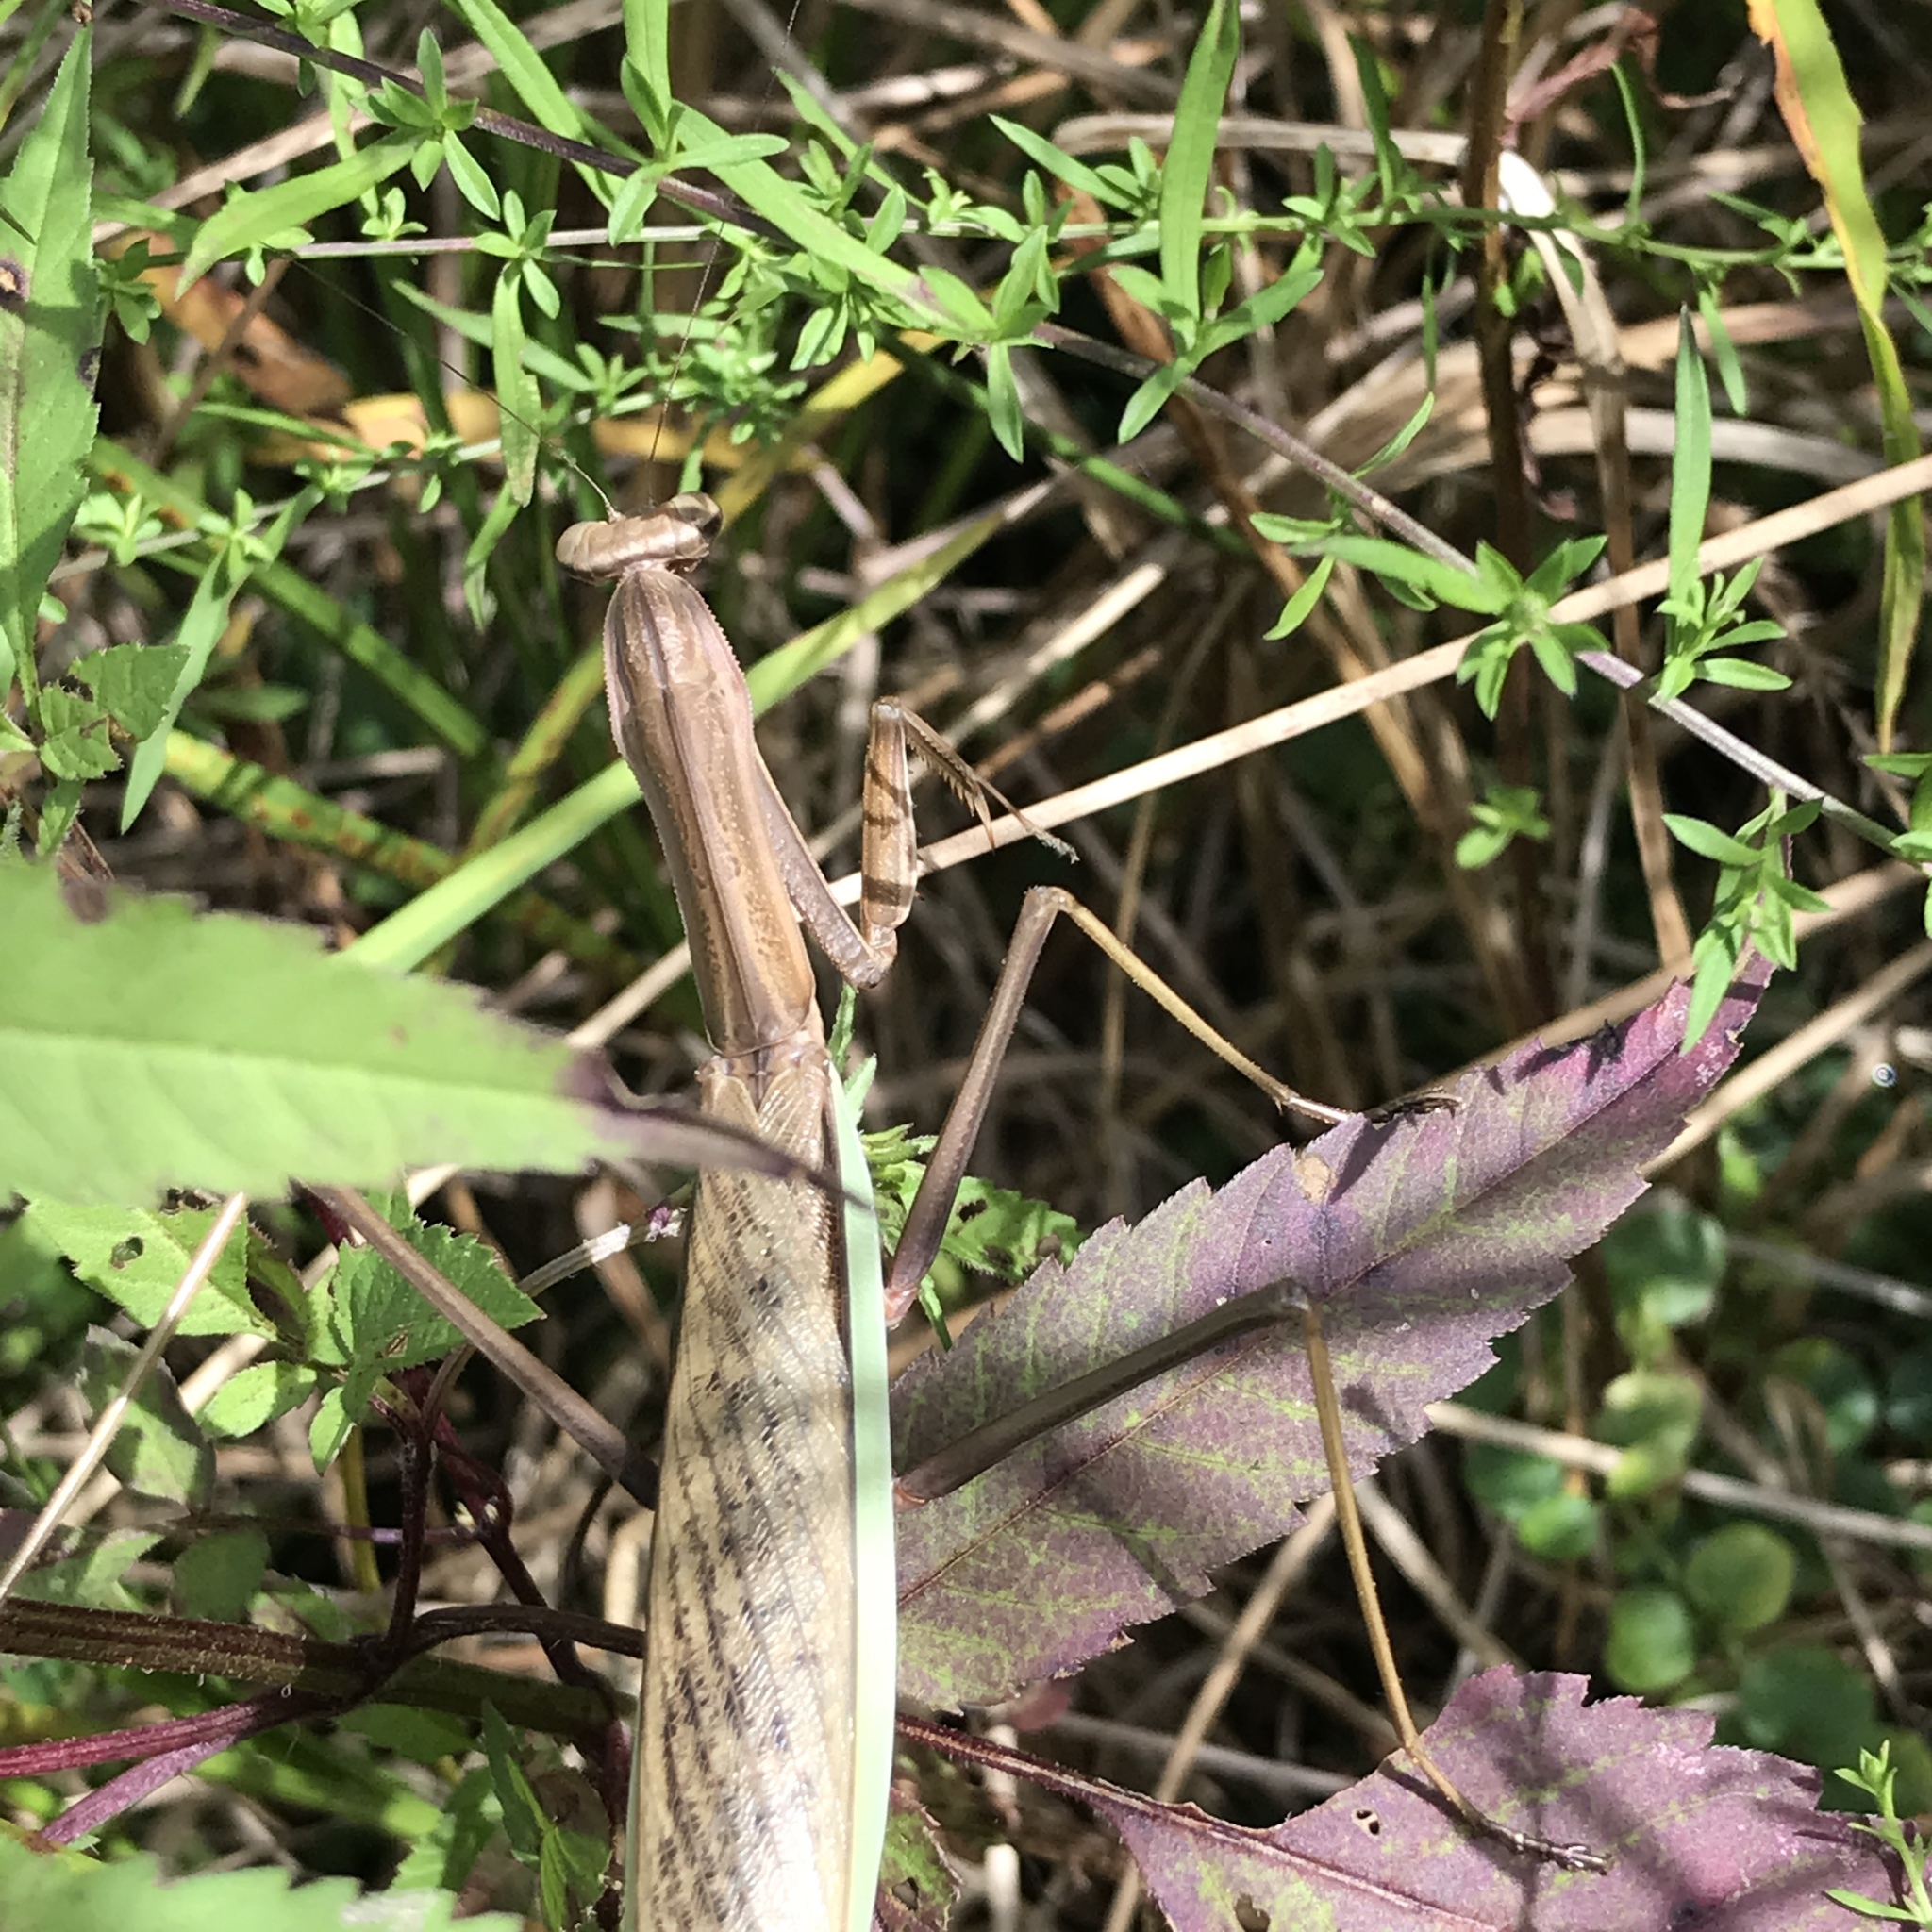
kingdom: Animalia
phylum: Arthropoda
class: Insecta
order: Mantodea
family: Mantidae
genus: Tenodera
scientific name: Tenodera sinensis
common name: Chinese mantis
